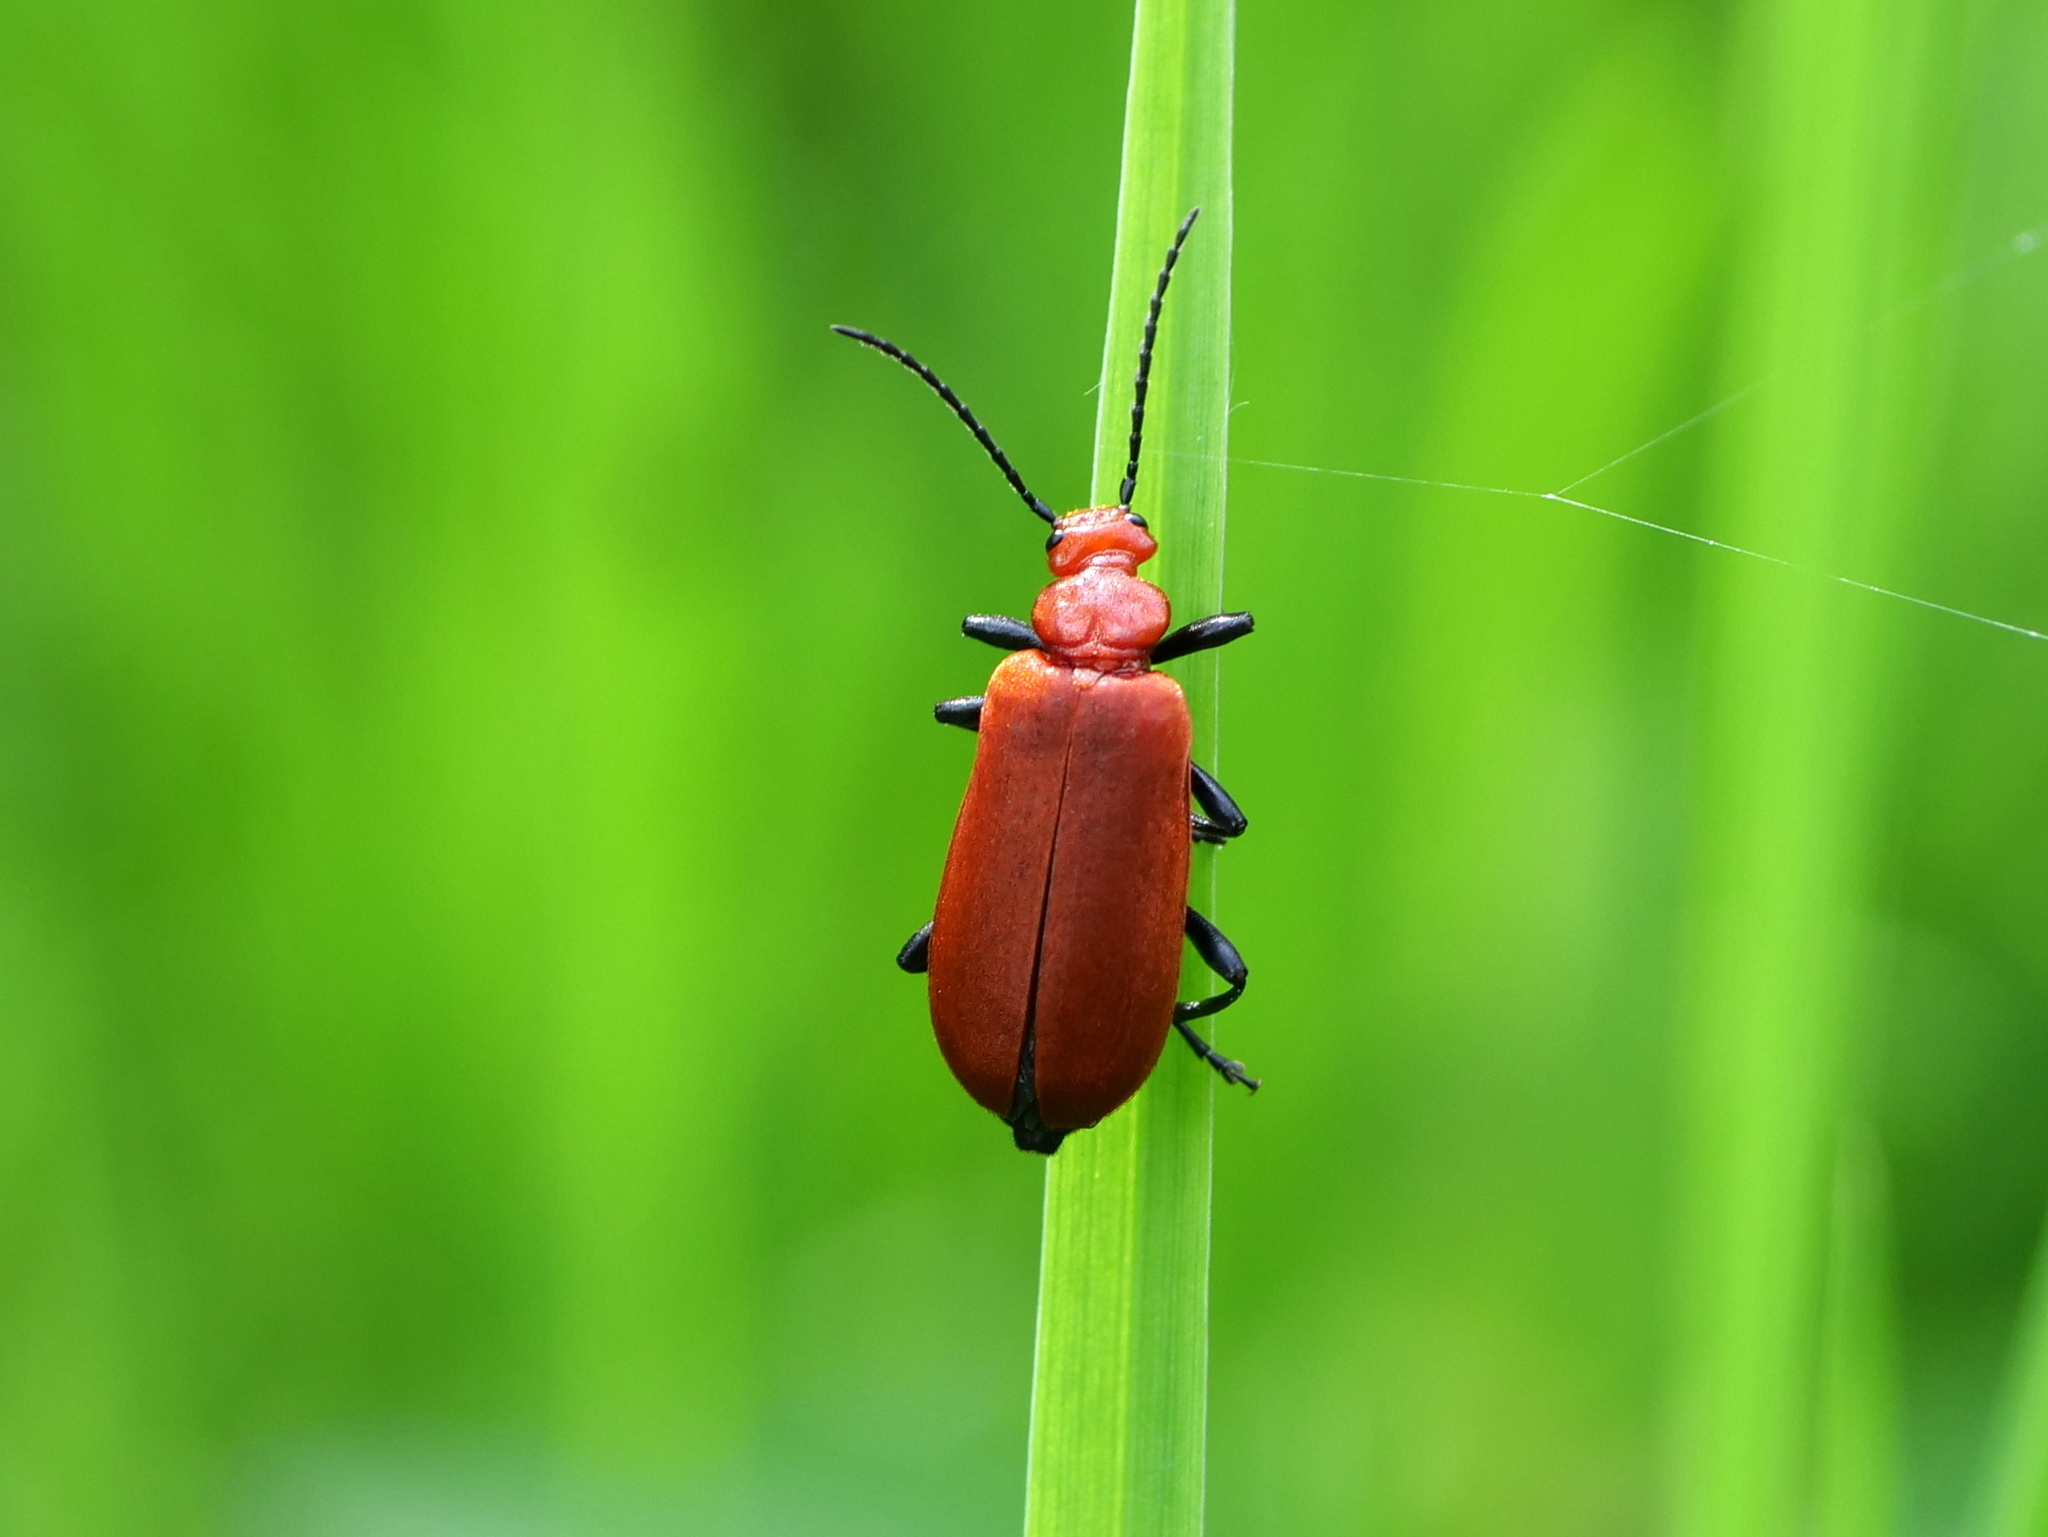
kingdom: Animalia
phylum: Arthropoda
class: Insecta
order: Coleoptera
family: Pyrochroidae
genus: Pyrochroa
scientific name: Pyrochroa serraticornis
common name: Red-headed cardinal beetle
